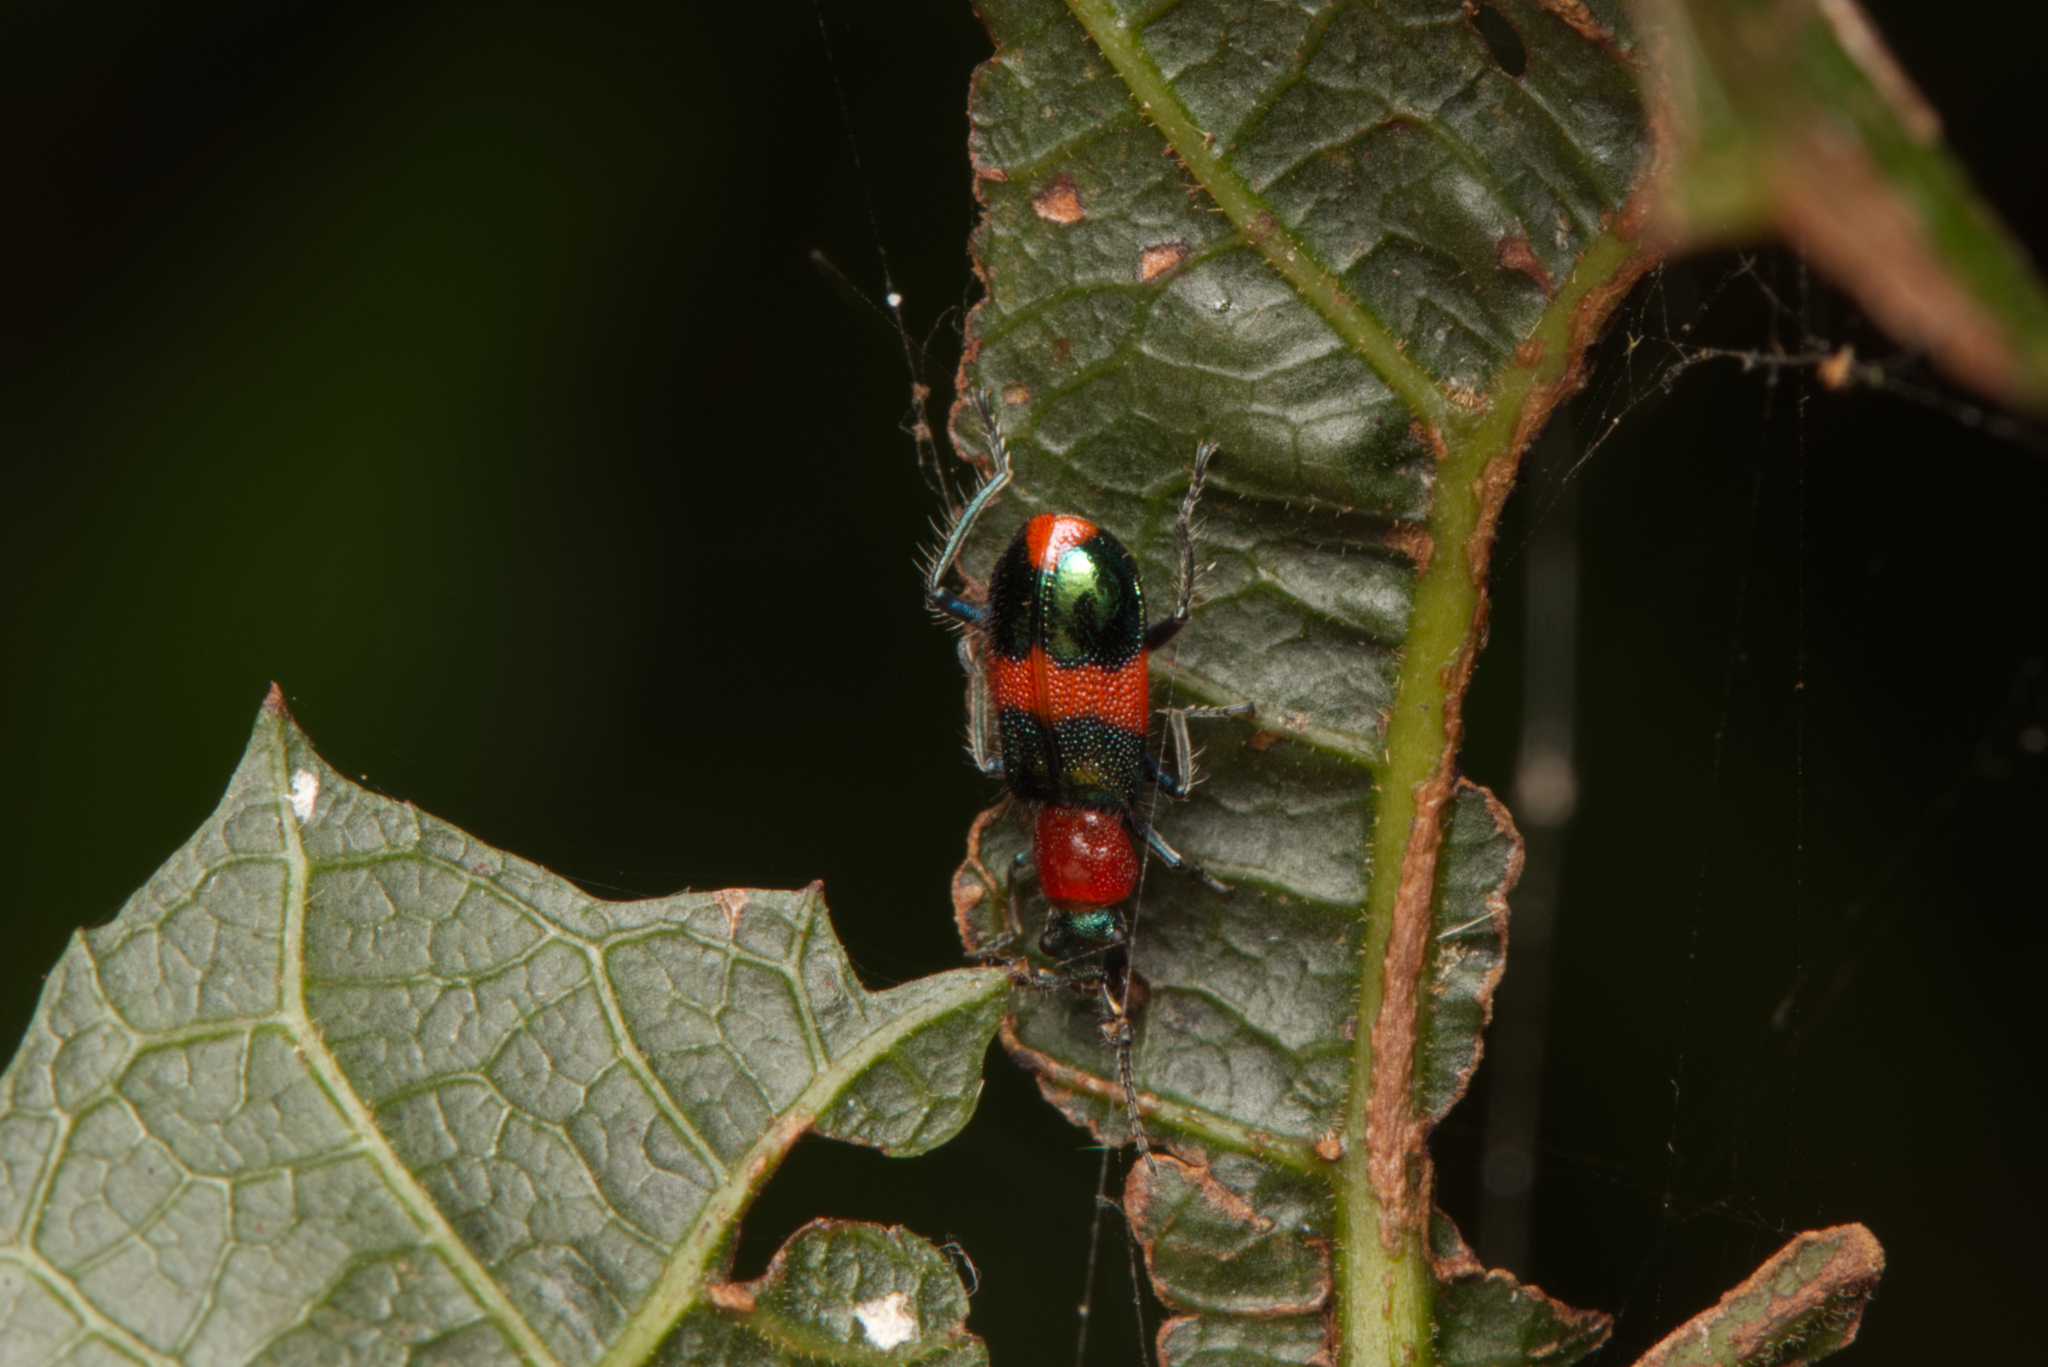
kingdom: Animalia
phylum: Arthropoda
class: Insecta
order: Coleoptera
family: Melyridae
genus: Dicranolaius
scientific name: Dicranolaius bellulus
